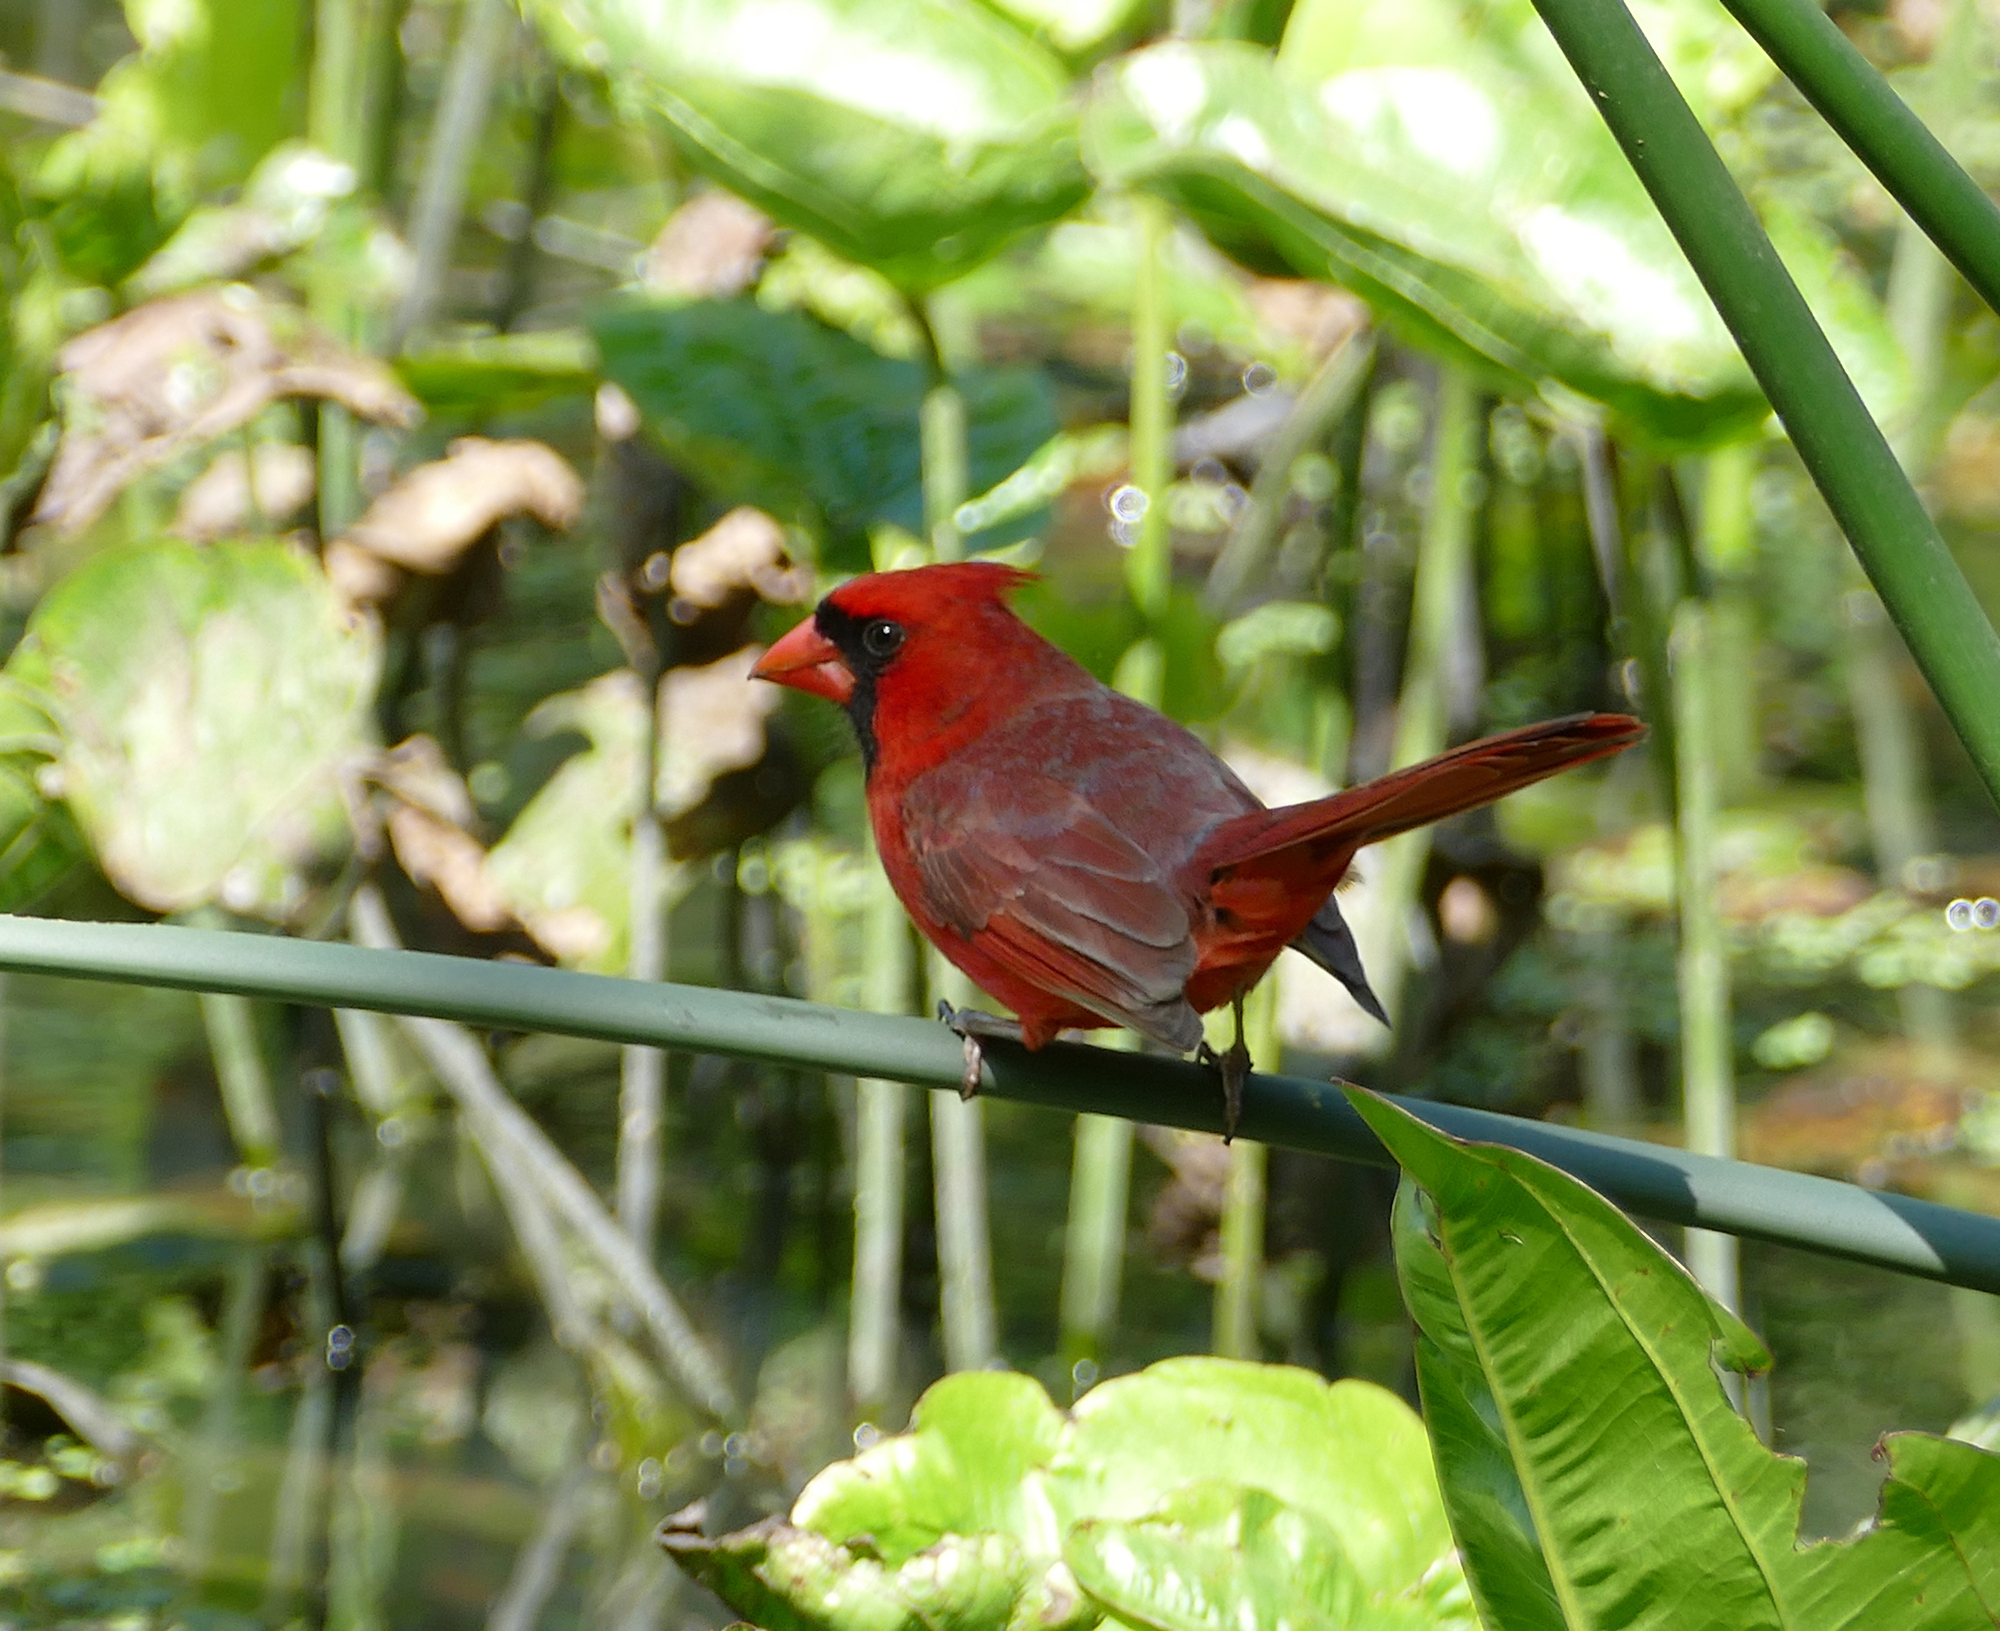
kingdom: Animalia
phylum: Chordata
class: Aves
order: Passeriformes
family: Cardinalidae
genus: Cardinalis
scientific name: Cardinalis cardinalis
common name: Northern cardinal
